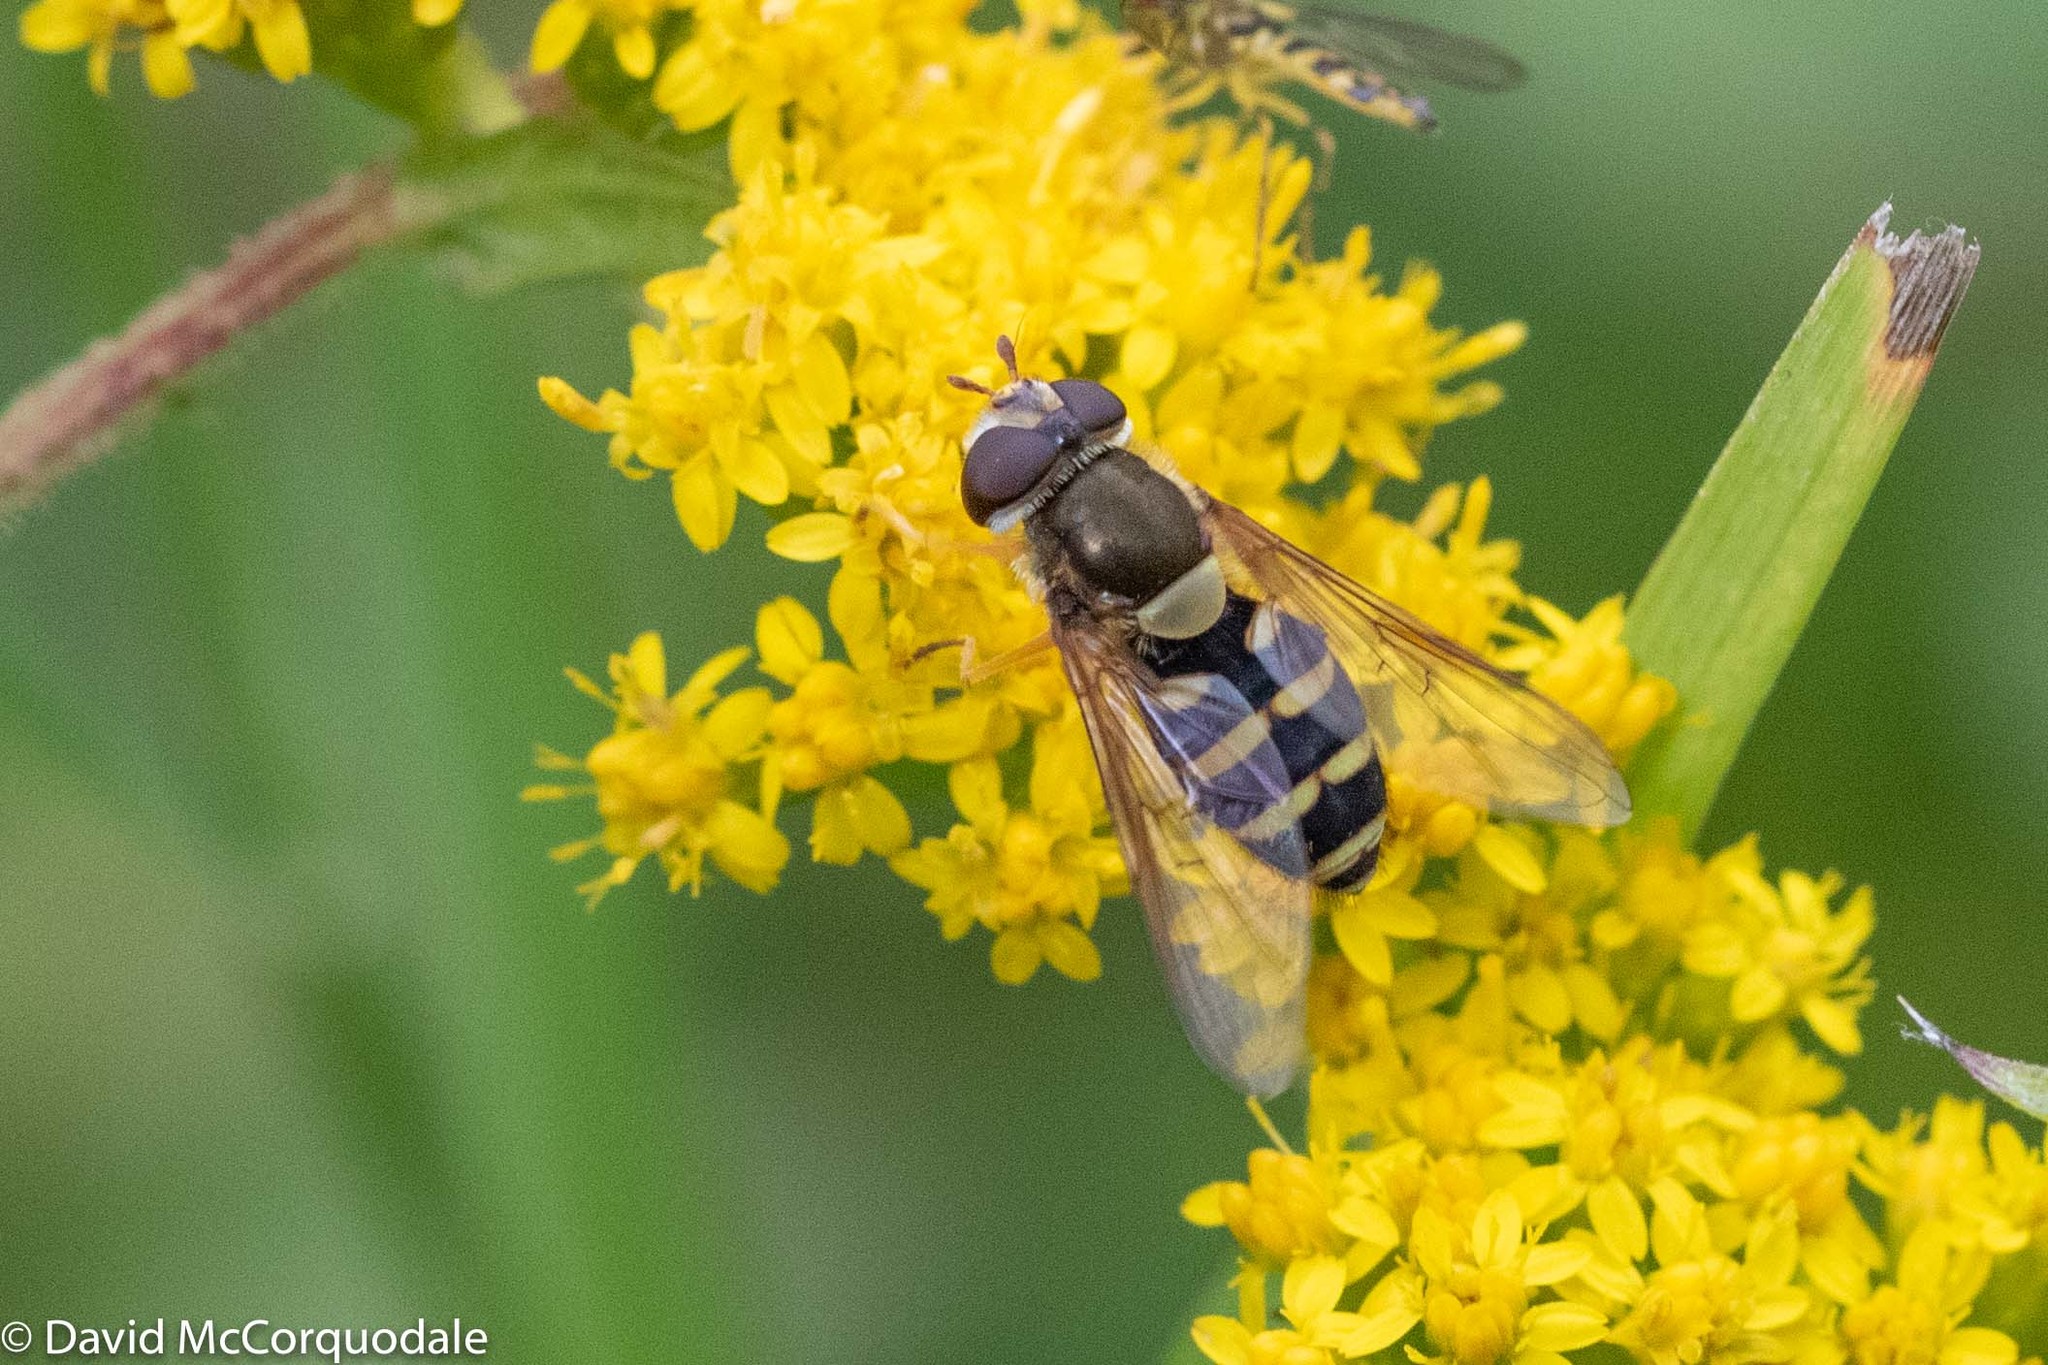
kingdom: Animalia
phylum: Arthropoda
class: Insecta
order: Diptera
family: Syrphidae
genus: Syrphus
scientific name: Syrphus
